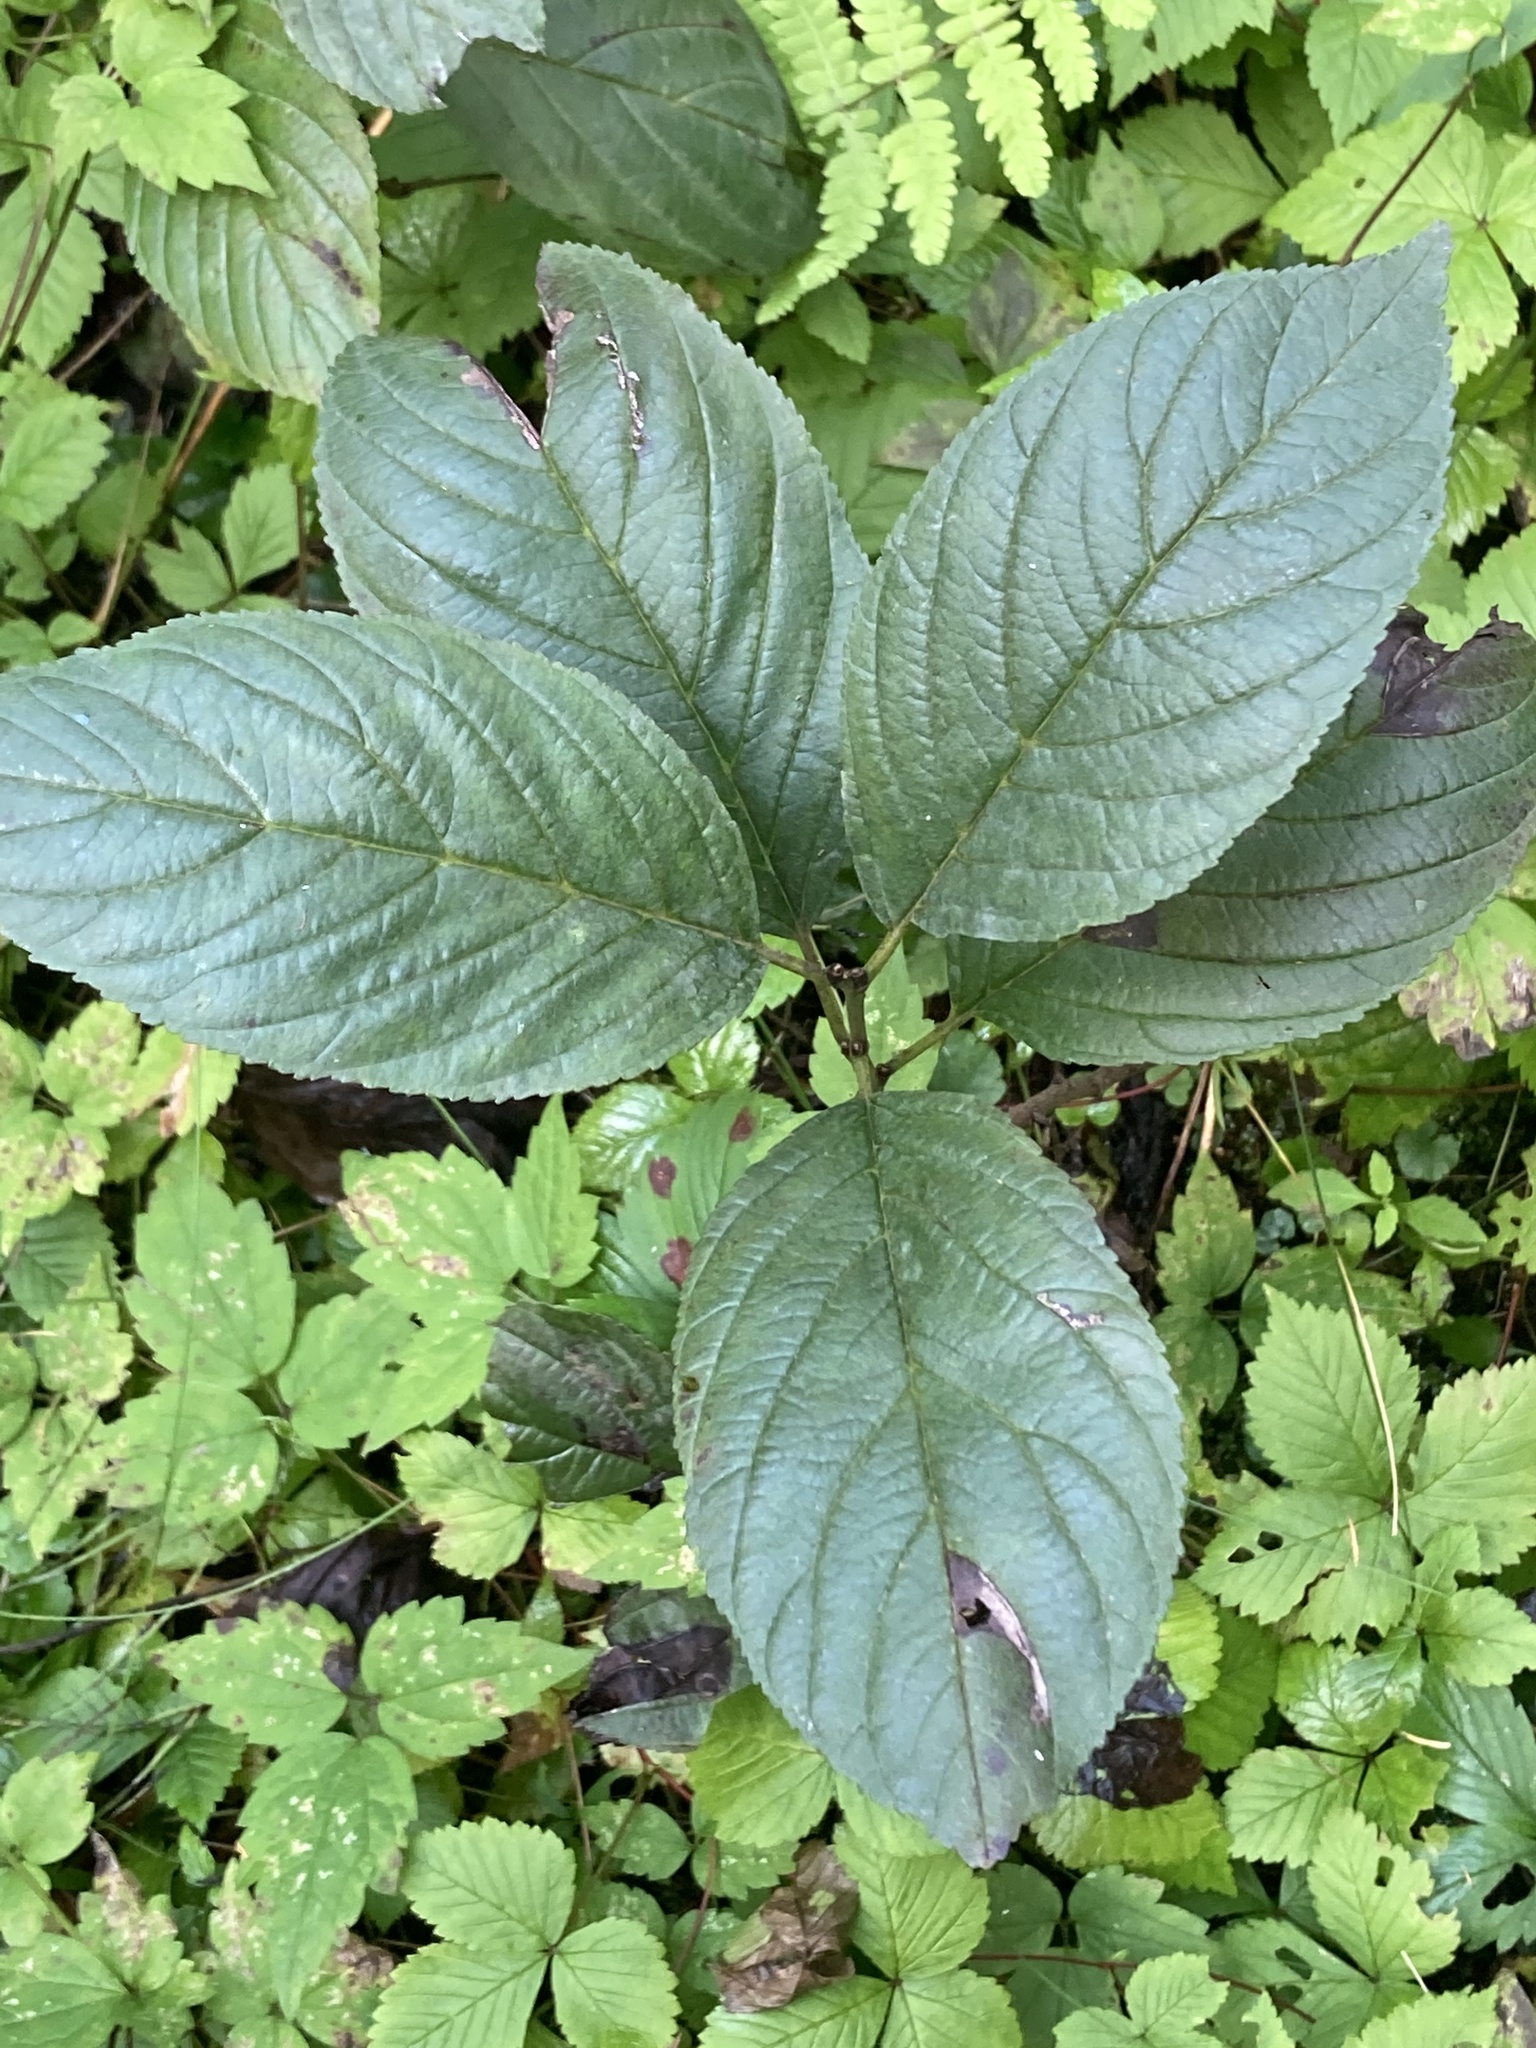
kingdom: Plantae
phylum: Tracheophyta
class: Magnoliopsida
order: Rosales
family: Rhamnaceae
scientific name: Rhamnaceae
